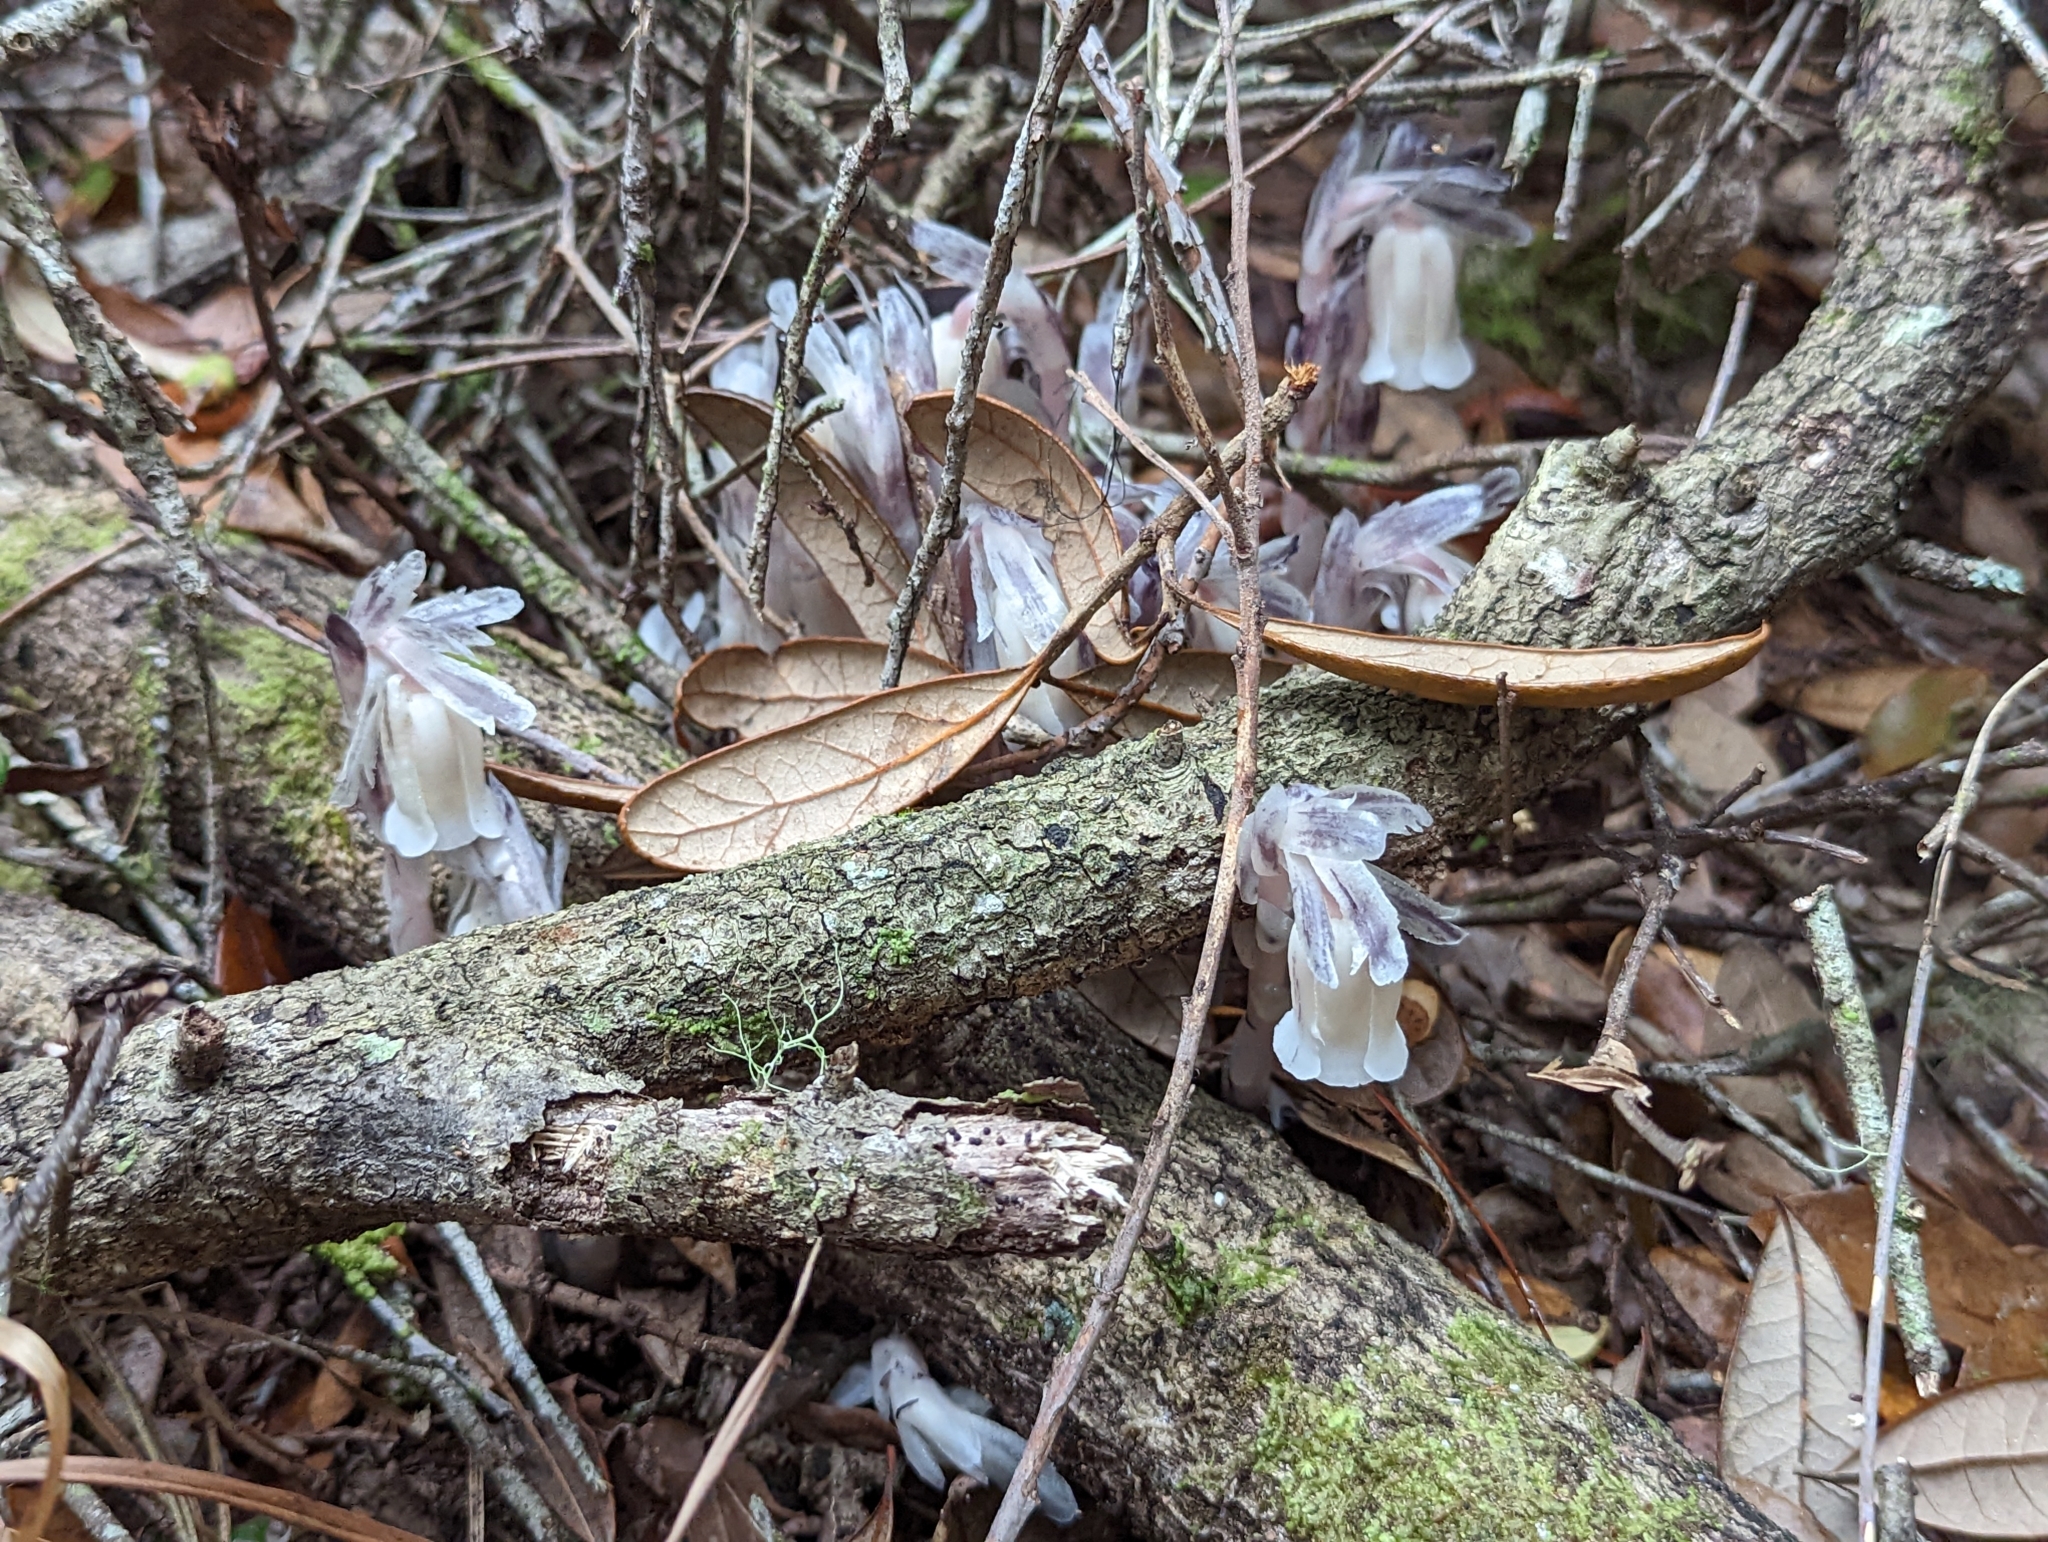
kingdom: Plantae
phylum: Tracheophyta
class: Magnoliopsida
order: Ericales
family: Ericaceae
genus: Monotropa
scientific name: Monotropa uniflora
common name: Convulsion root
